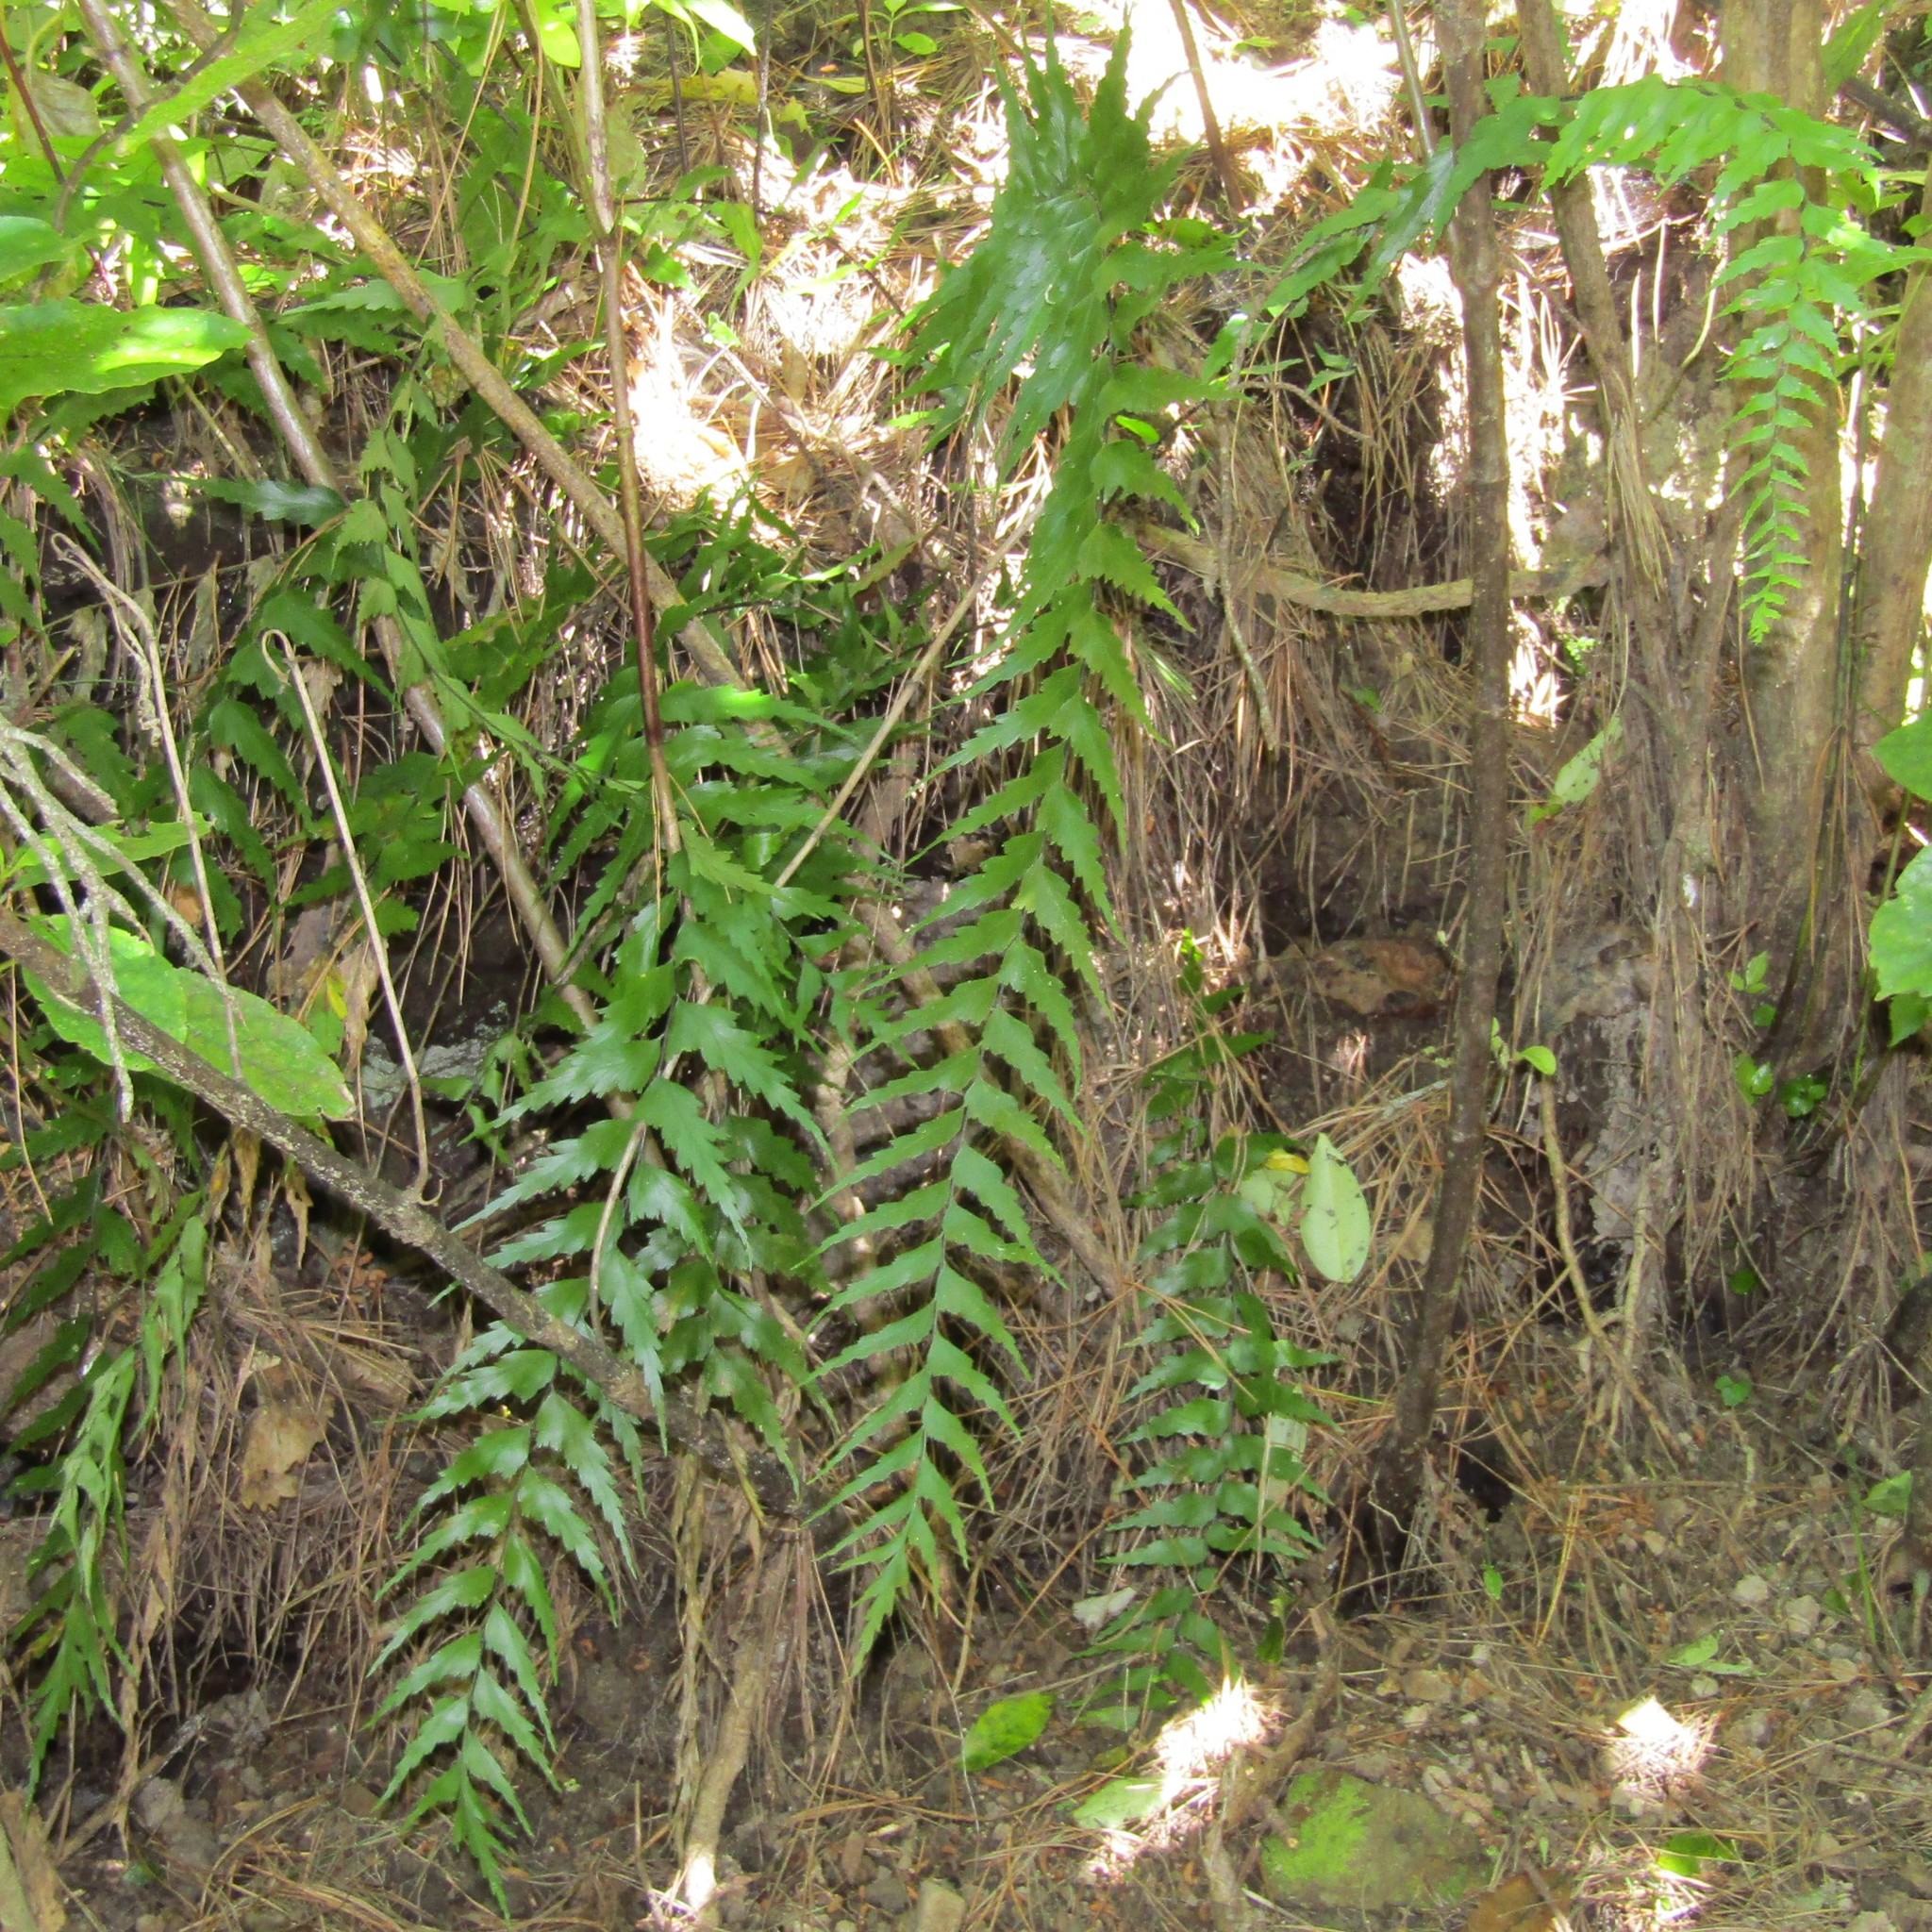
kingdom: Plantae
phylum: Tracheophyta
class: Polypodiopsida
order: Polypodiales
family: Aspleniaceae
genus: Asplenium
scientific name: Asplenium polyodon
